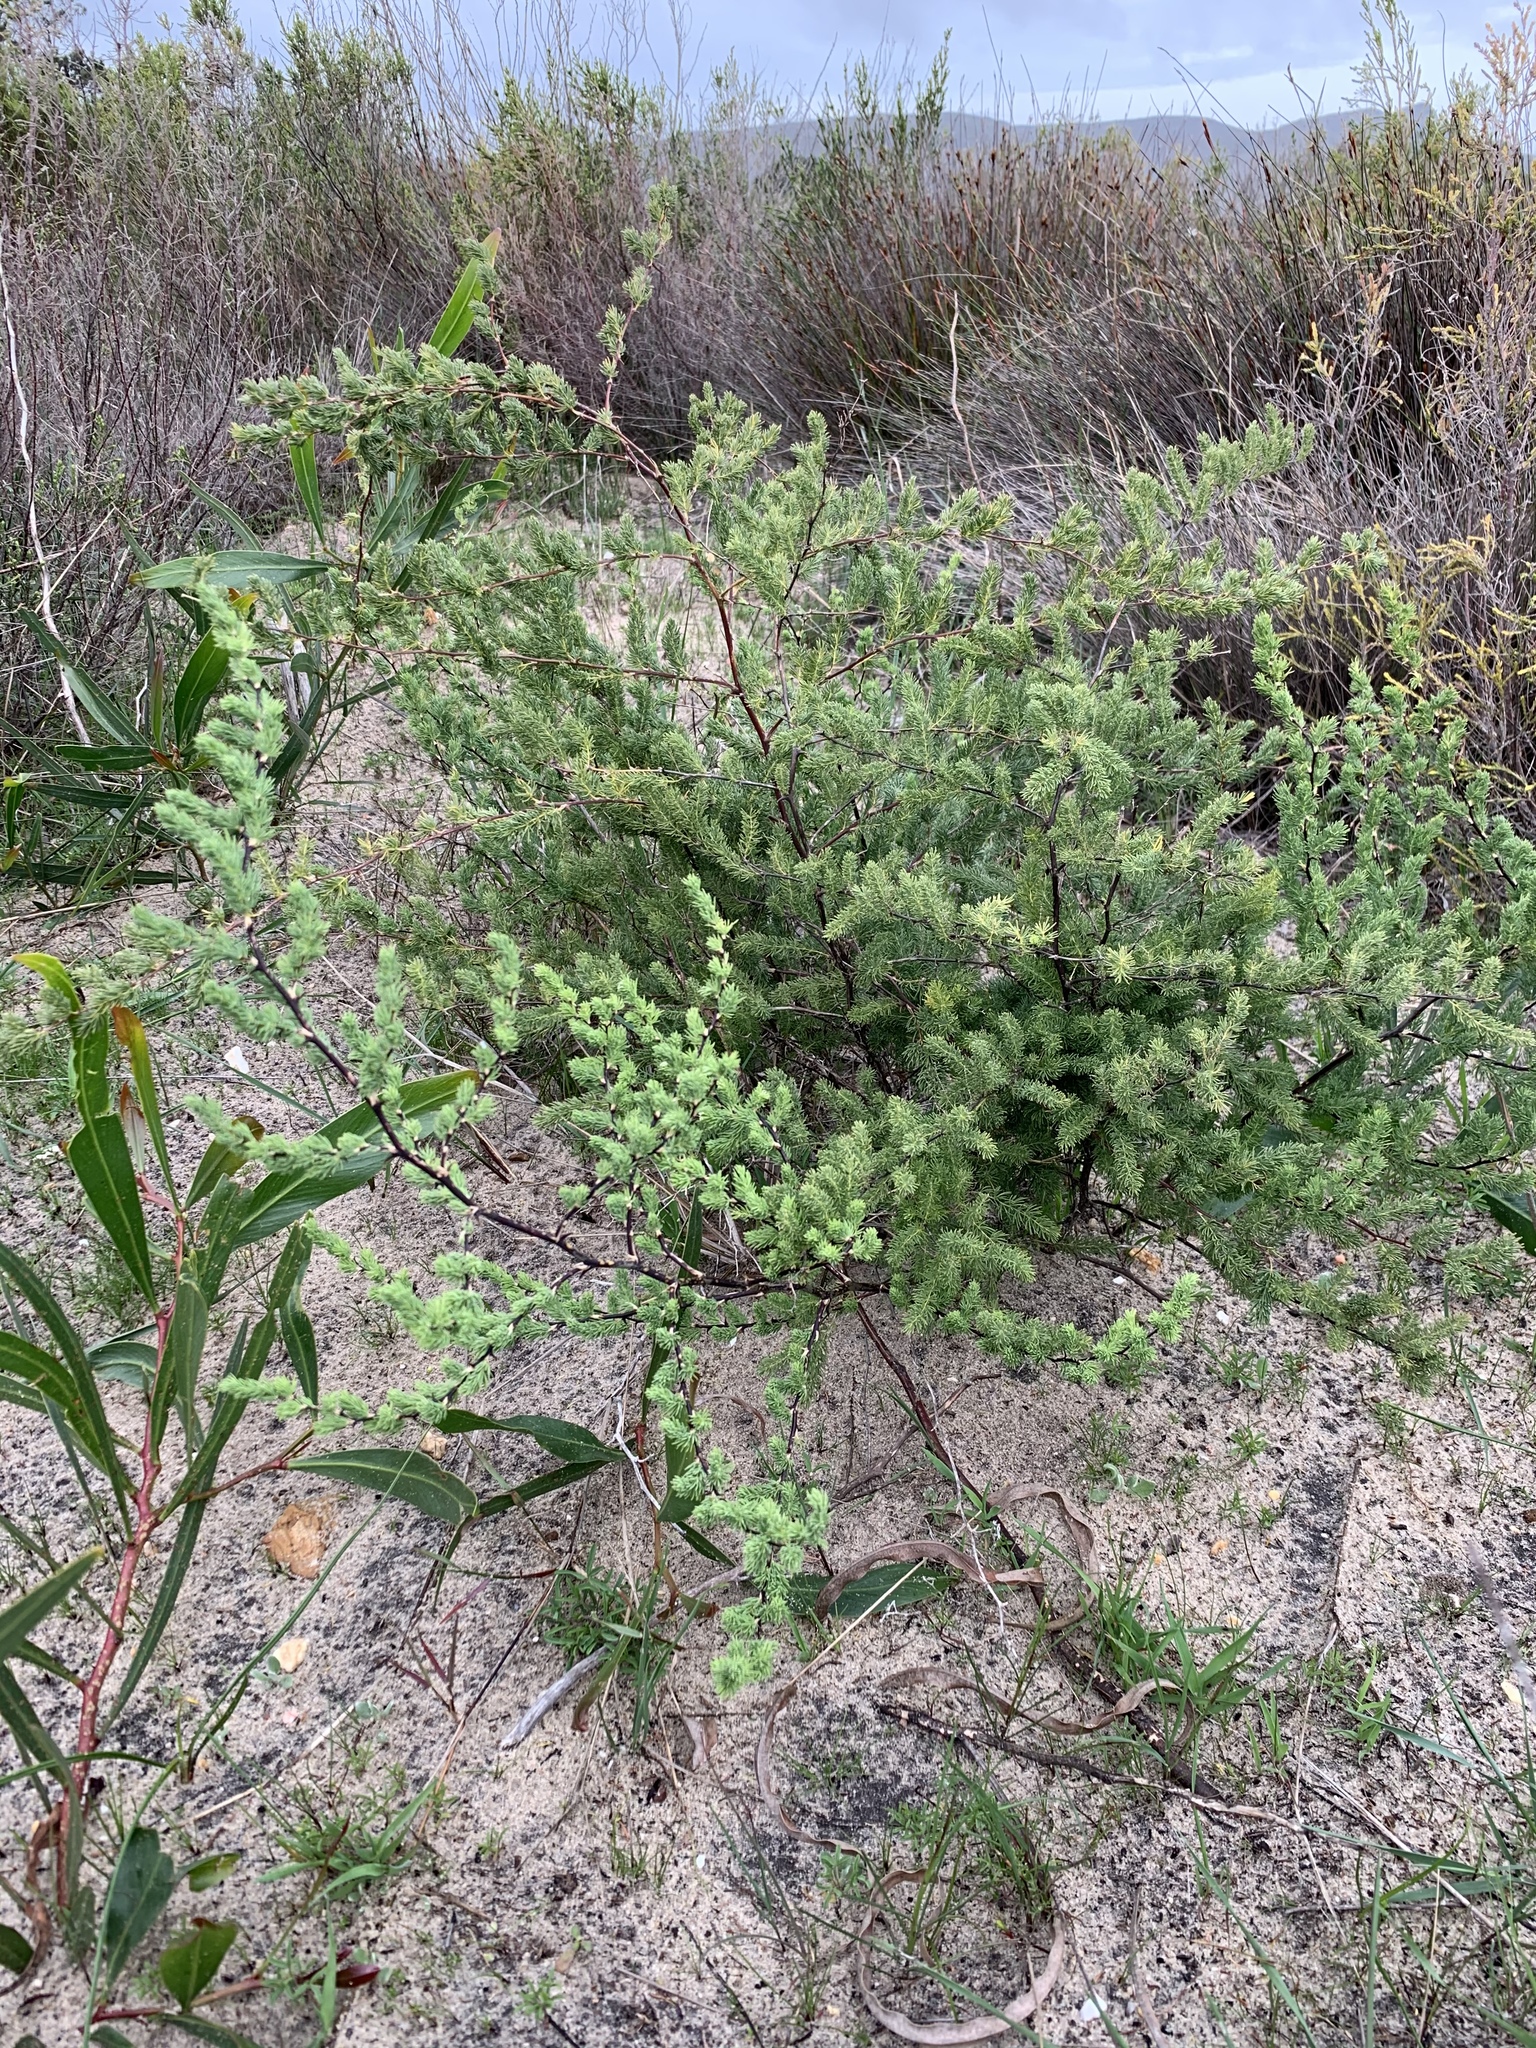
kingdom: Plantae
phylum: Tracheophyta
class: Liliopsida
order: Asparagales
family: Asparagaceae
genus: Asparagus
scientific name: Asparagus rubicundus
